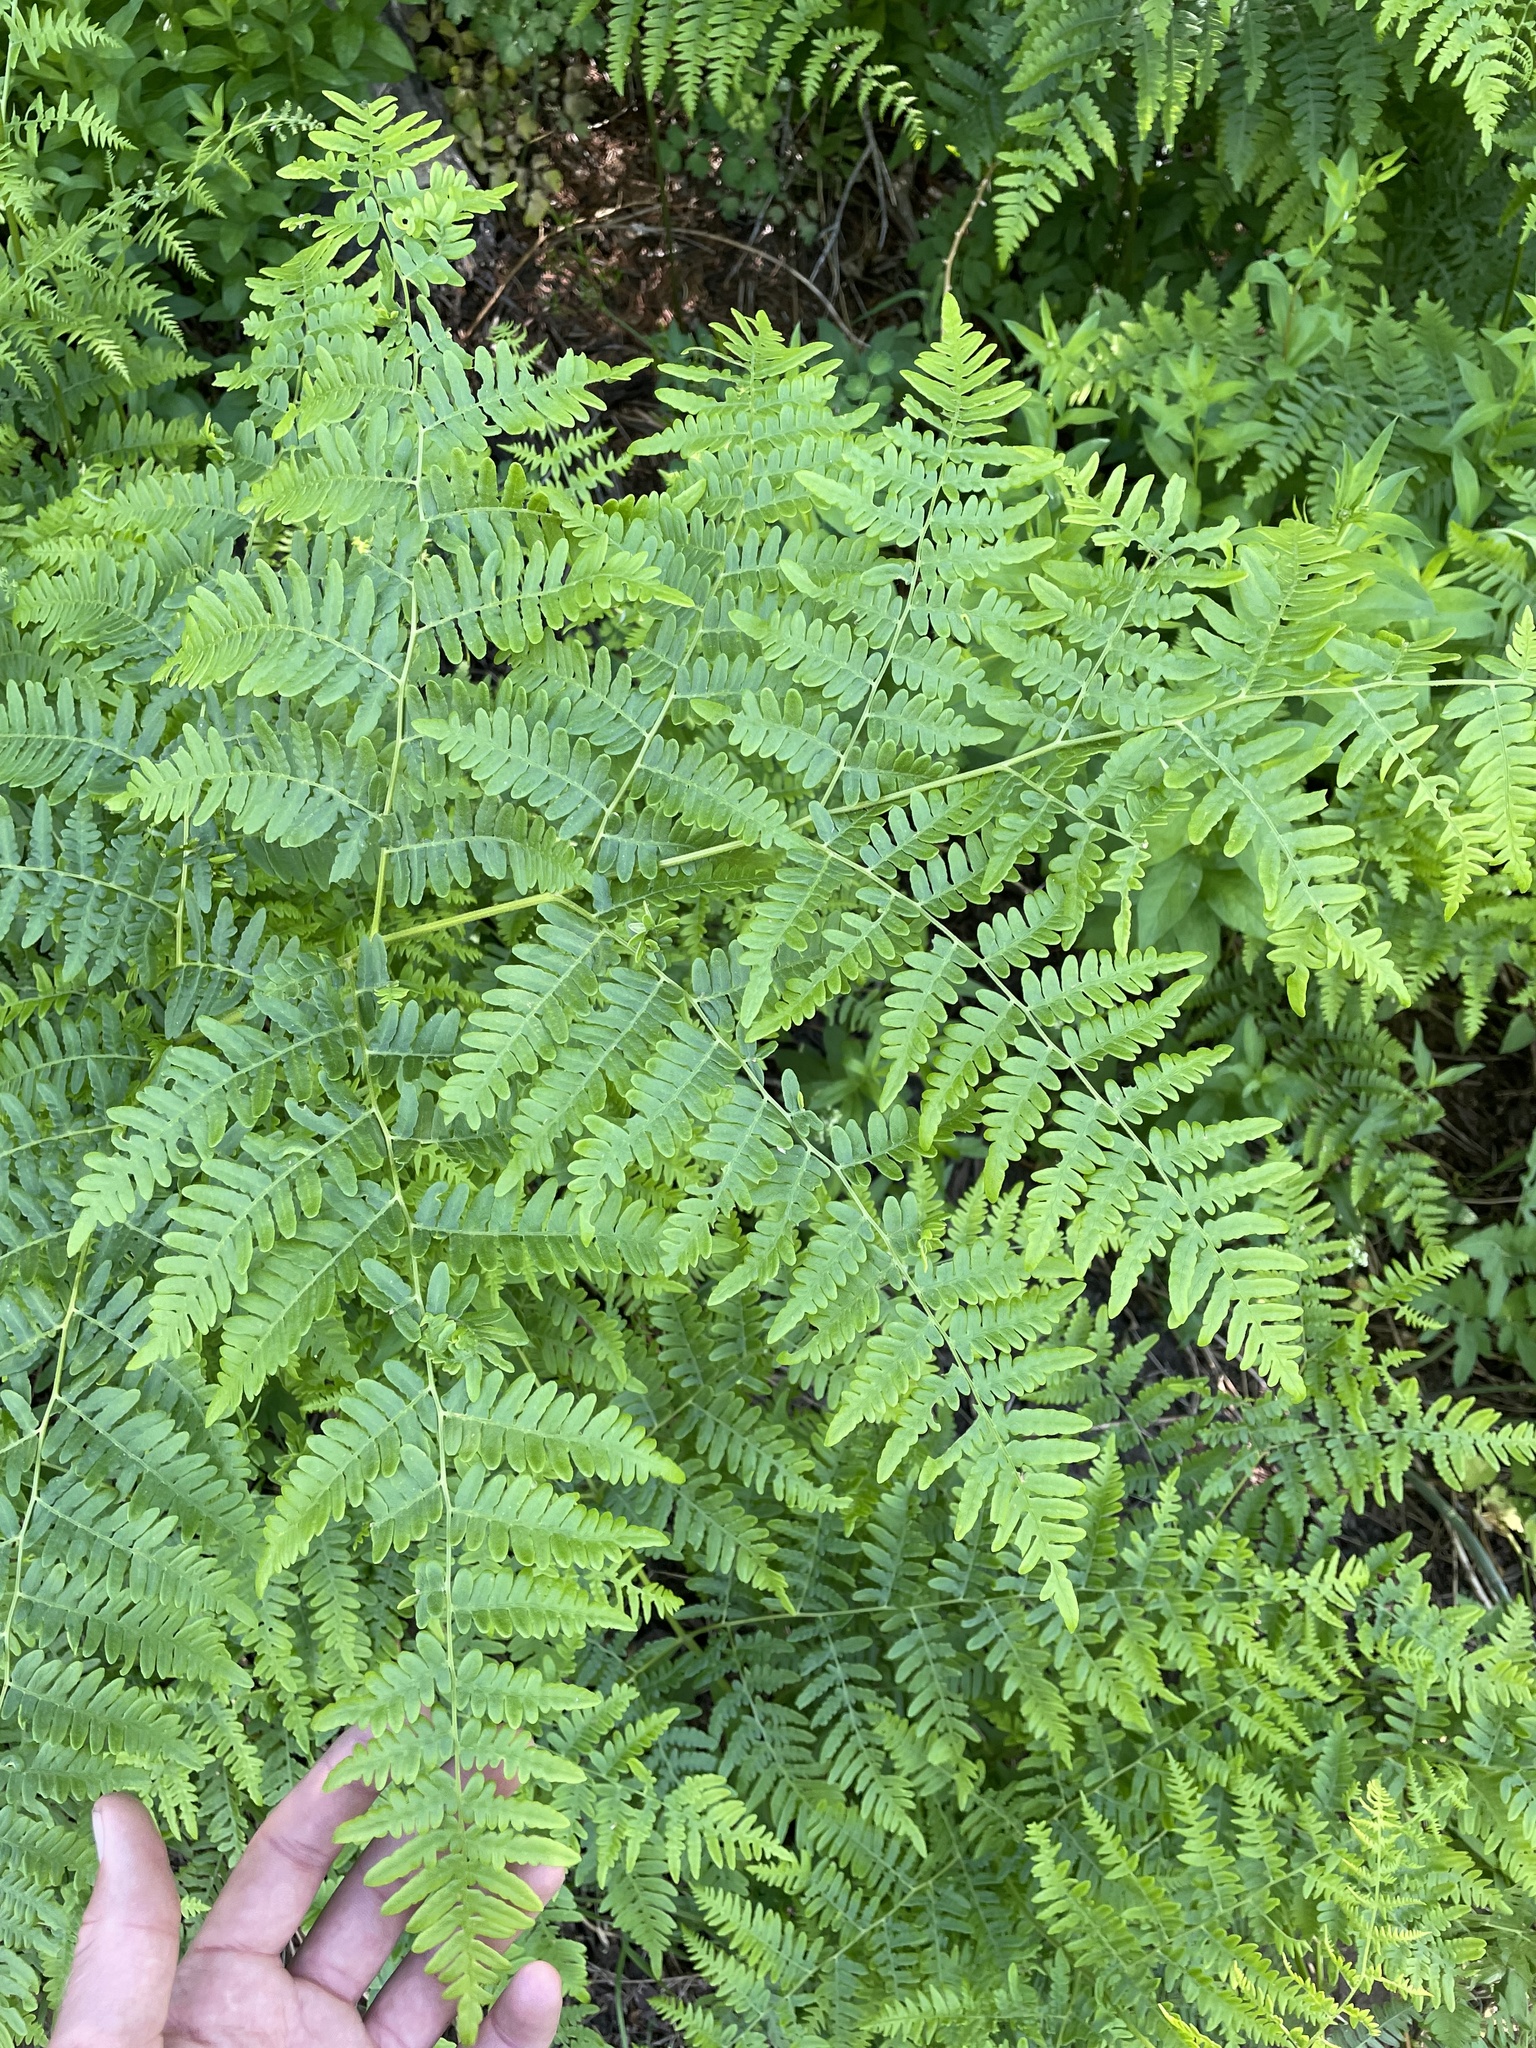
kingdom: Plantae
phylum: Tracheophyta
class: Polypodiopsida
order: Polypodiales
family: Dennstaedtiaceae
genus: Pteridium
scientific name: Pteridium aquilinum
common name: Bracken
